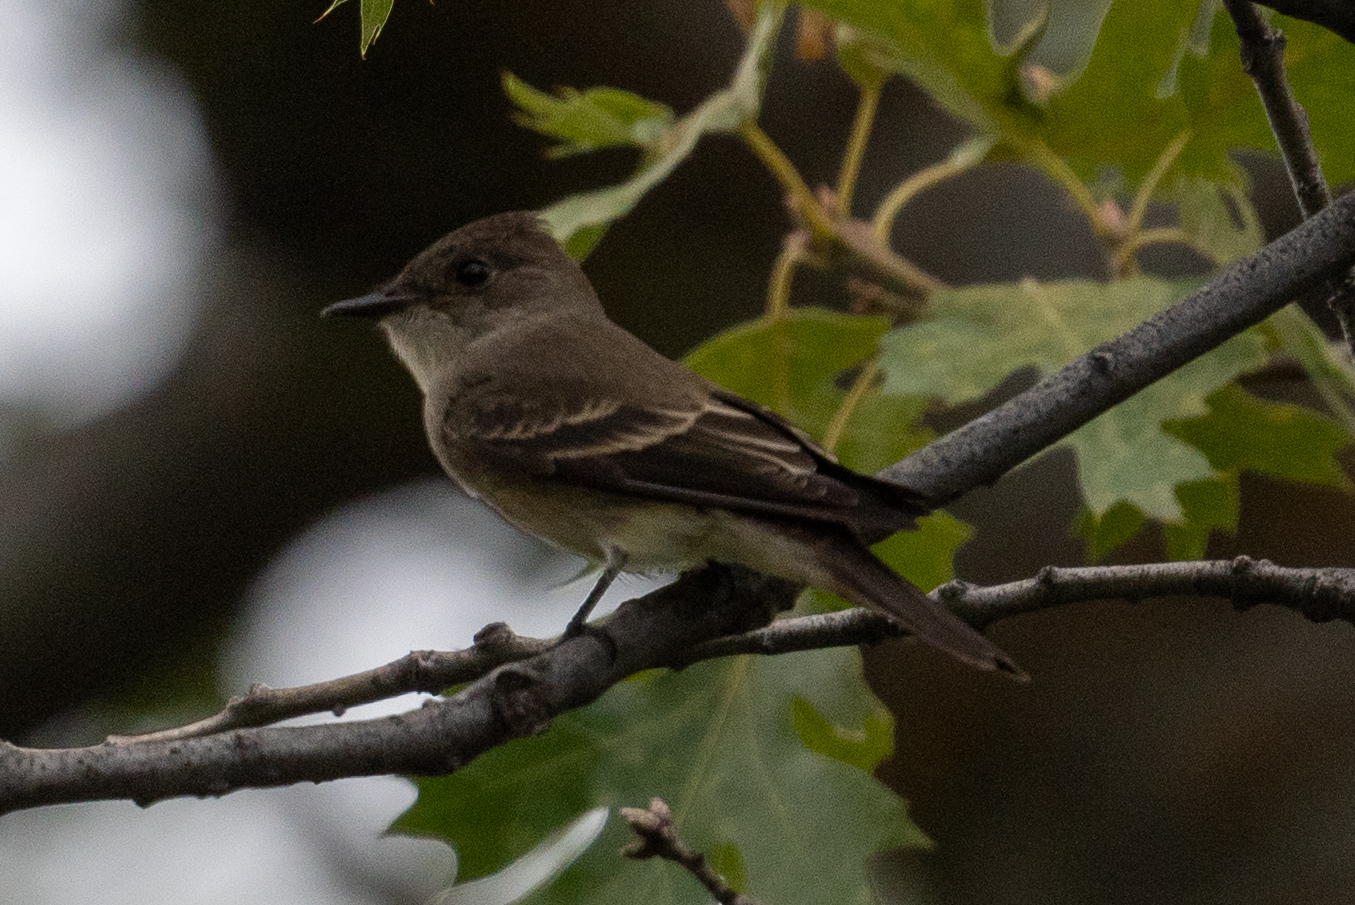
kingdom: Animalia
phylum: Chordata
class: Aves
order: Passeriformes
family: Tyrannidae
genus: Contopus
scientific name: Contopus sordidulus
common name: Western wood-pewee
